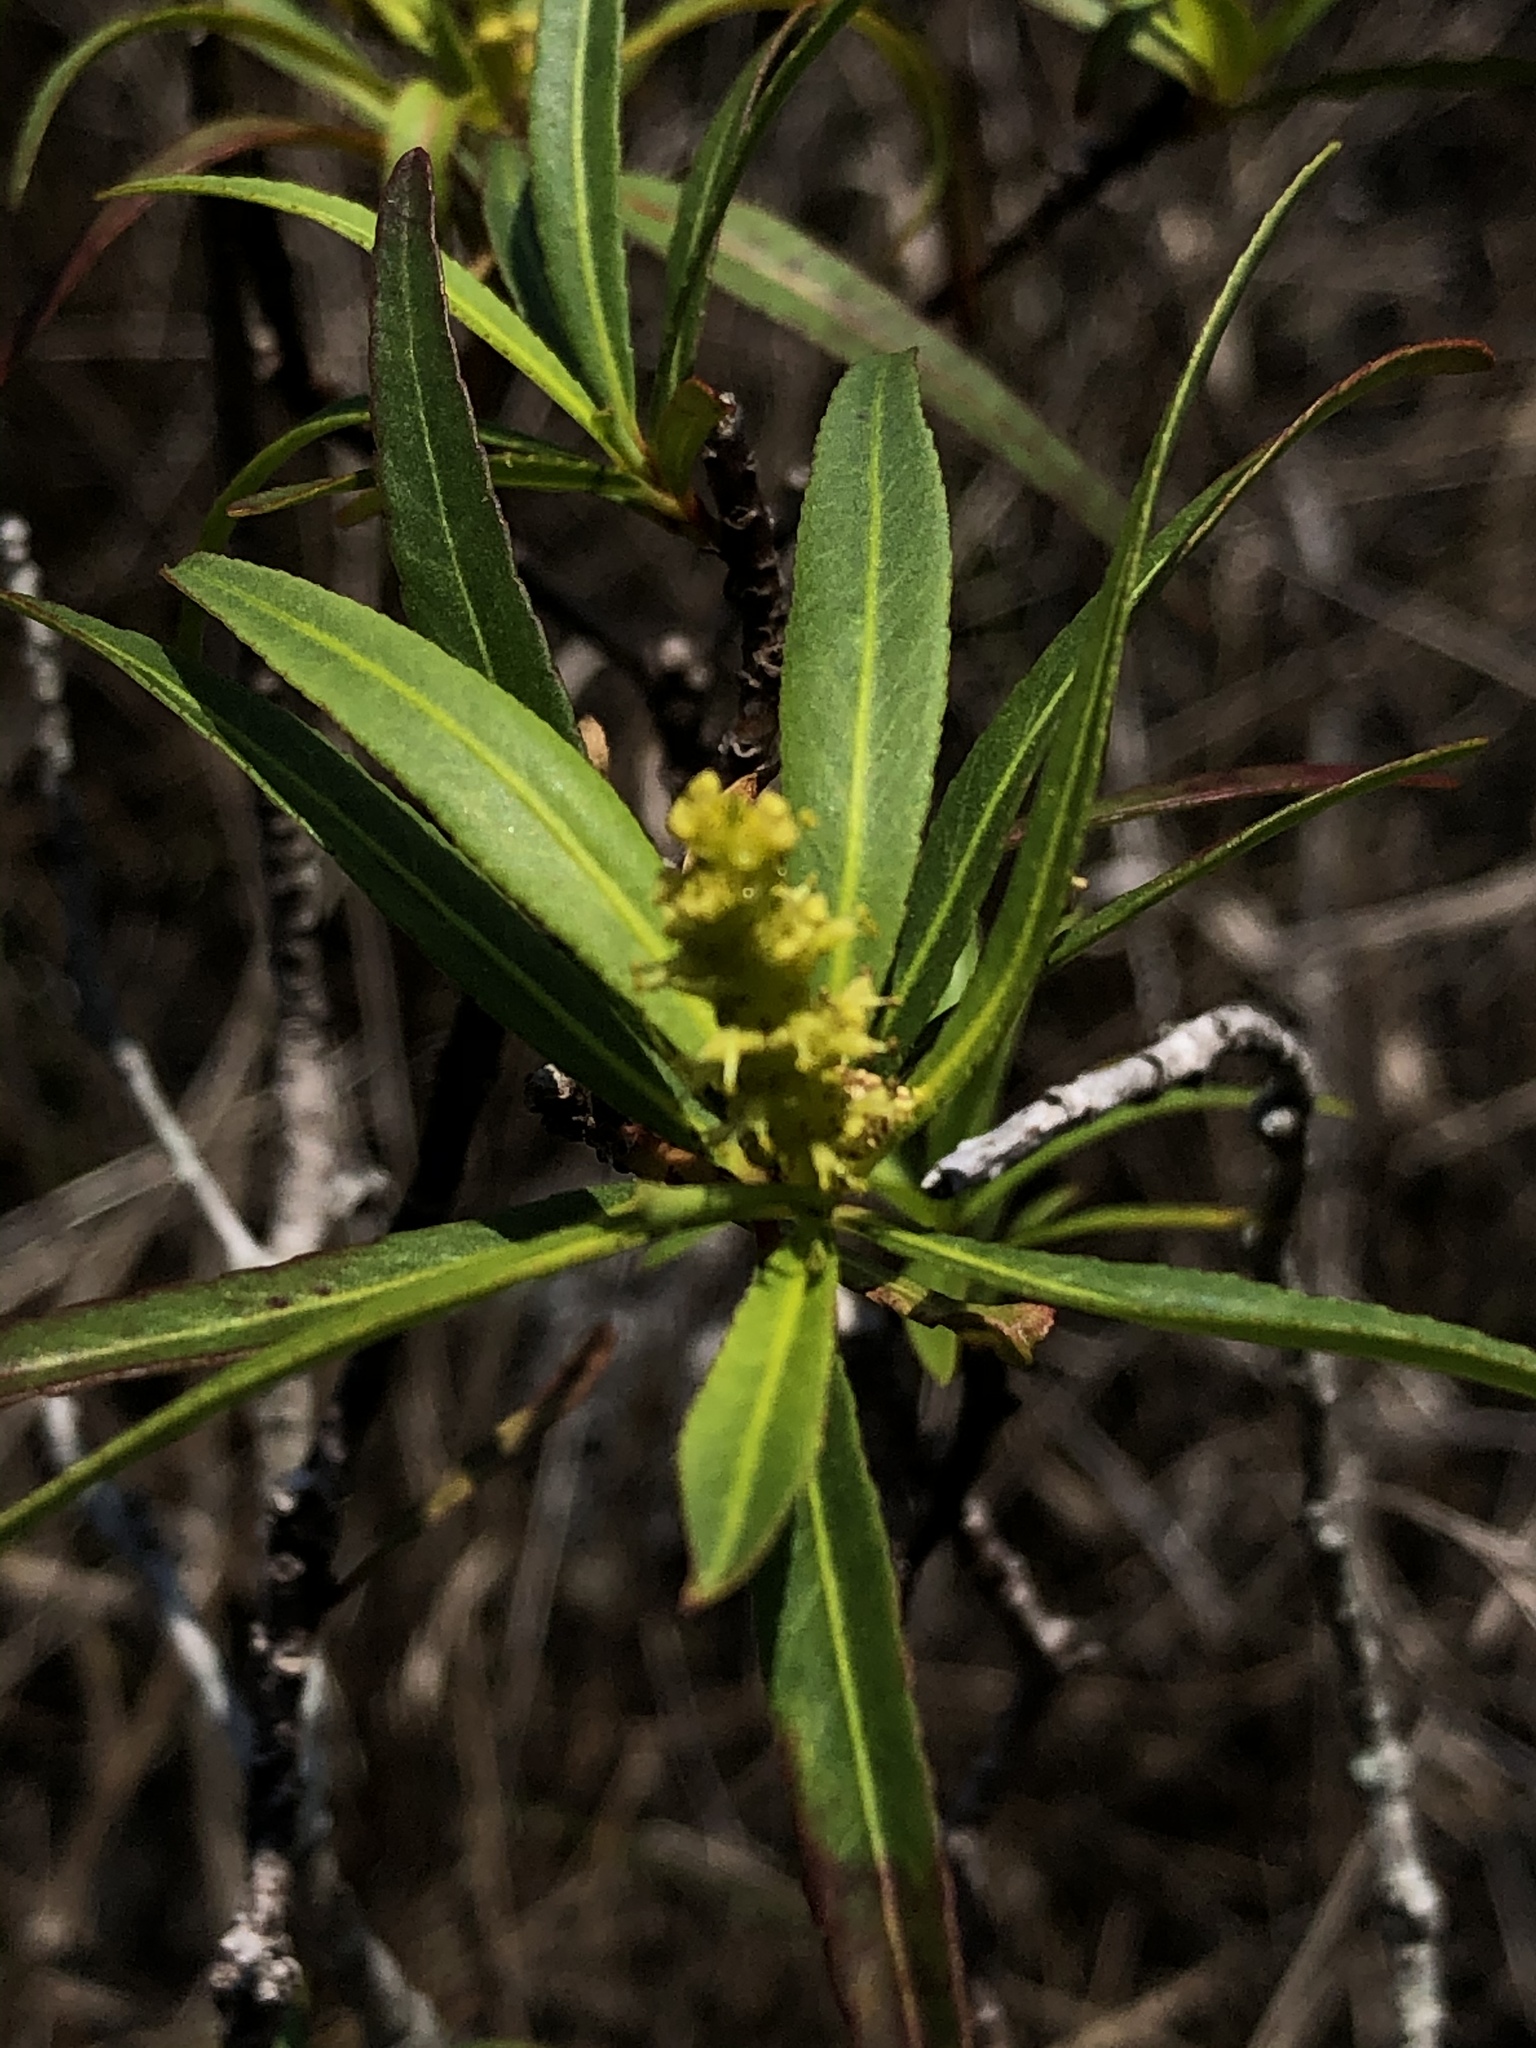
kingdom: Plantae
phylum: Tracheophyta
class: Magnoliopsida
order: Malpighiales
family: Euphorbiaceae
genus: Stillingia
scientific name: Stillingia aquatica
